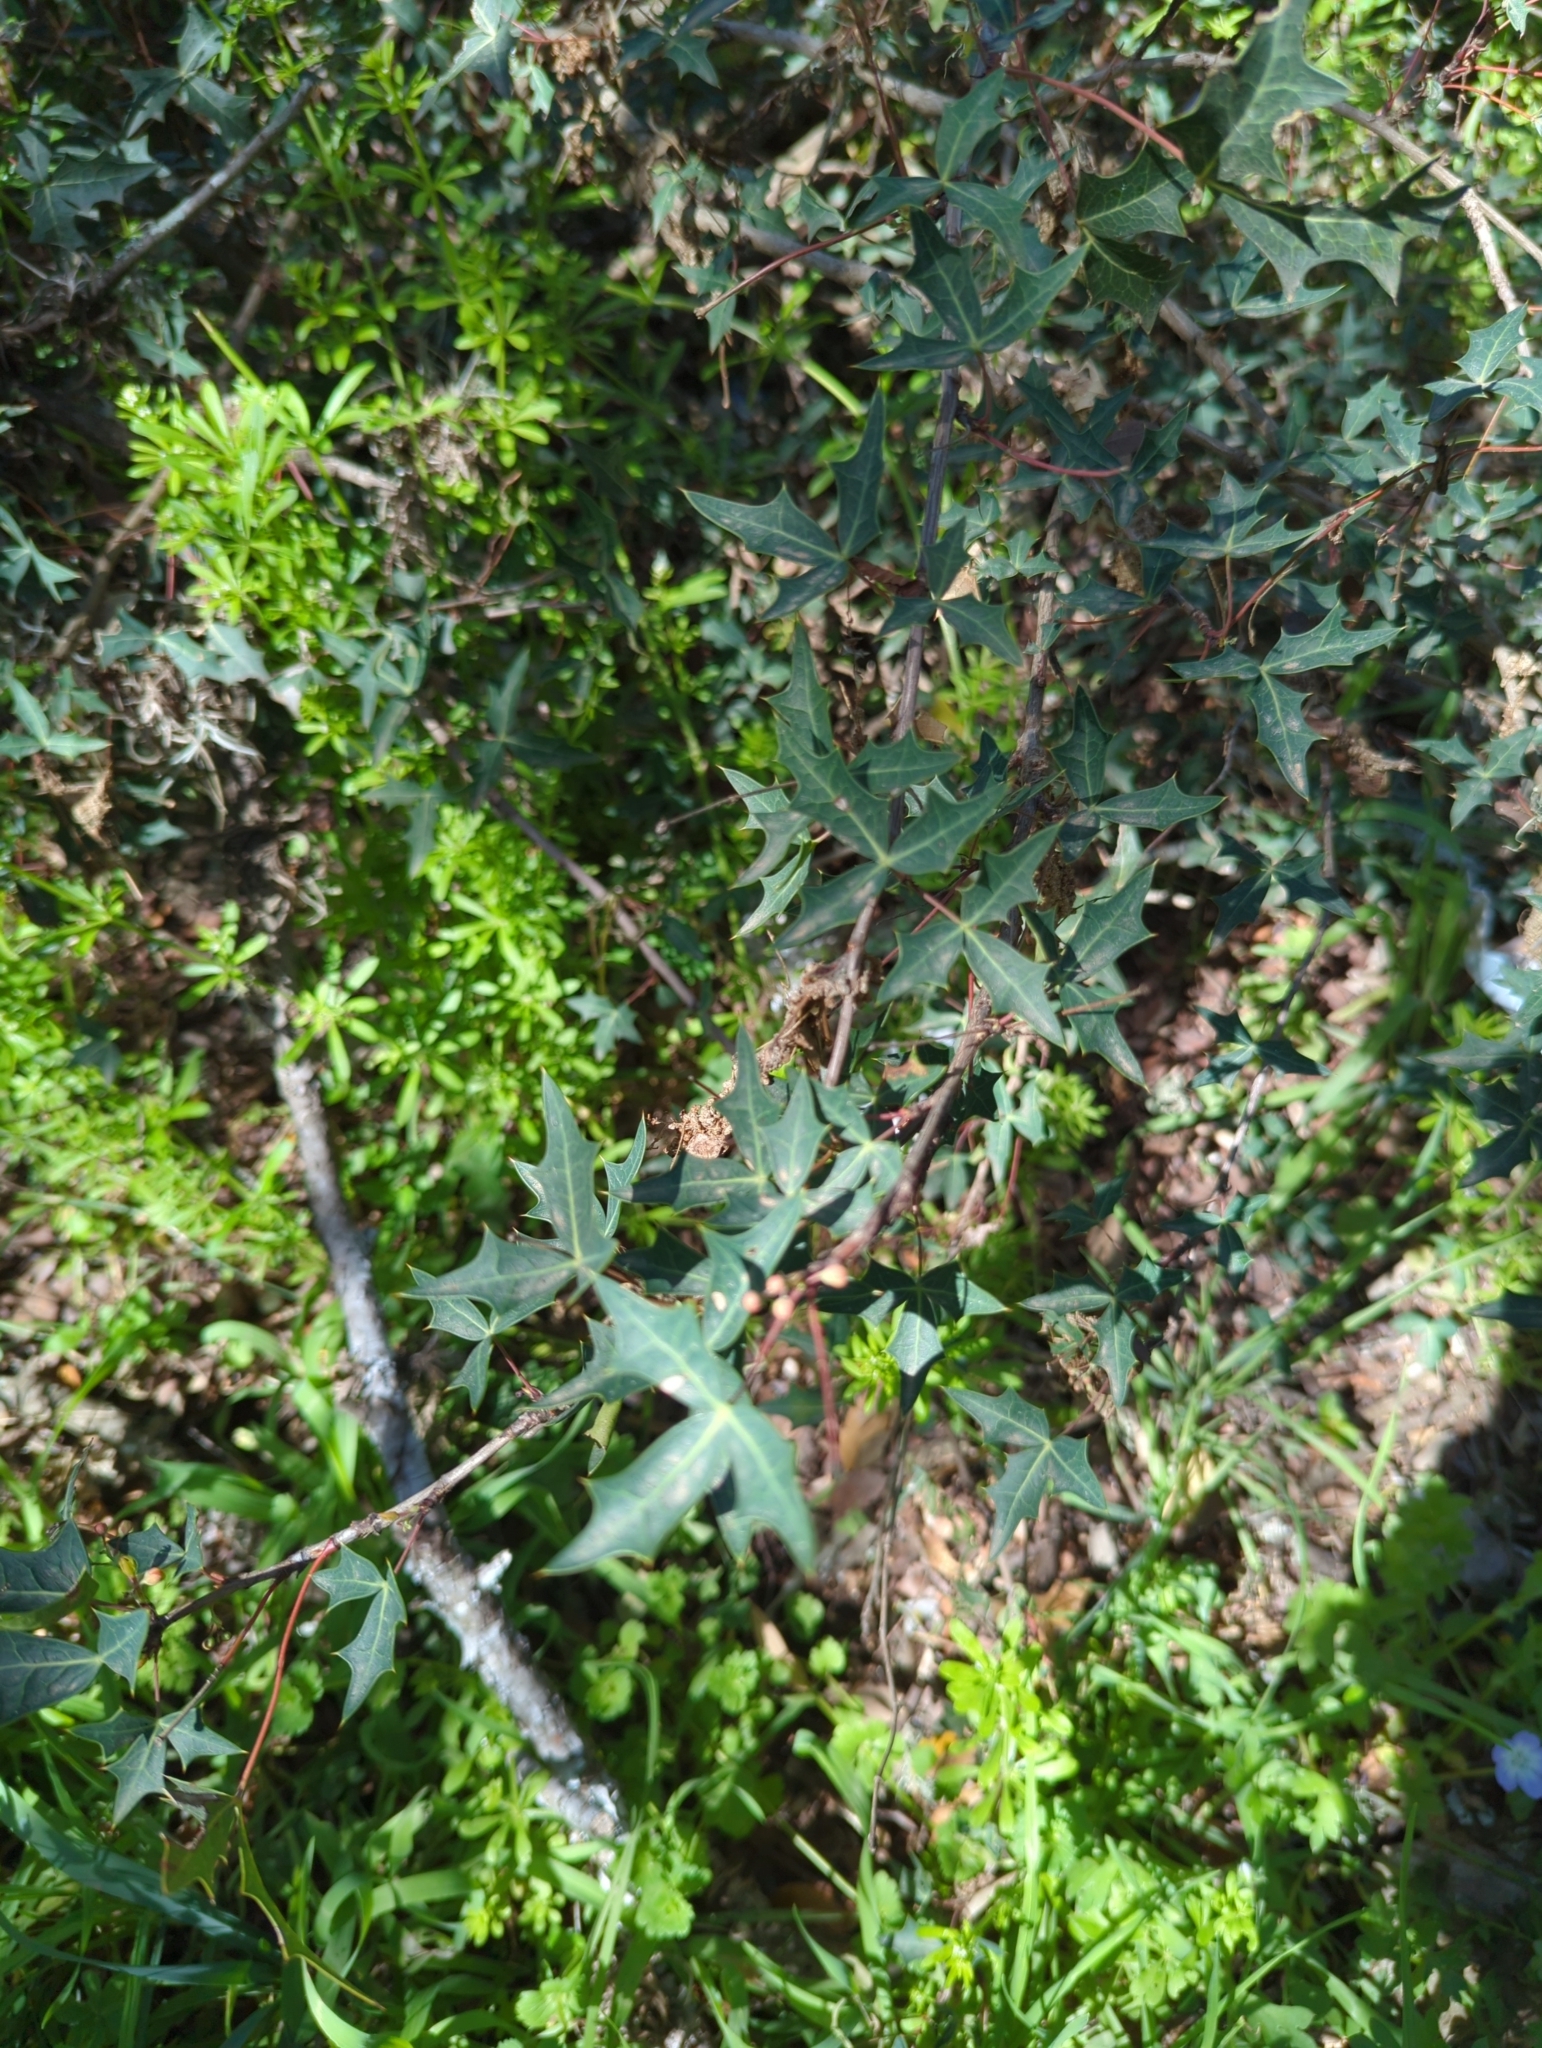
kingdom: Plantae
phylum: Tracheophyta
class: Magnoliopsida
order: Ranunculales
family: Berberidaceae
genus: Alloberberis
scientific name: Alloberberis trifoliolata
